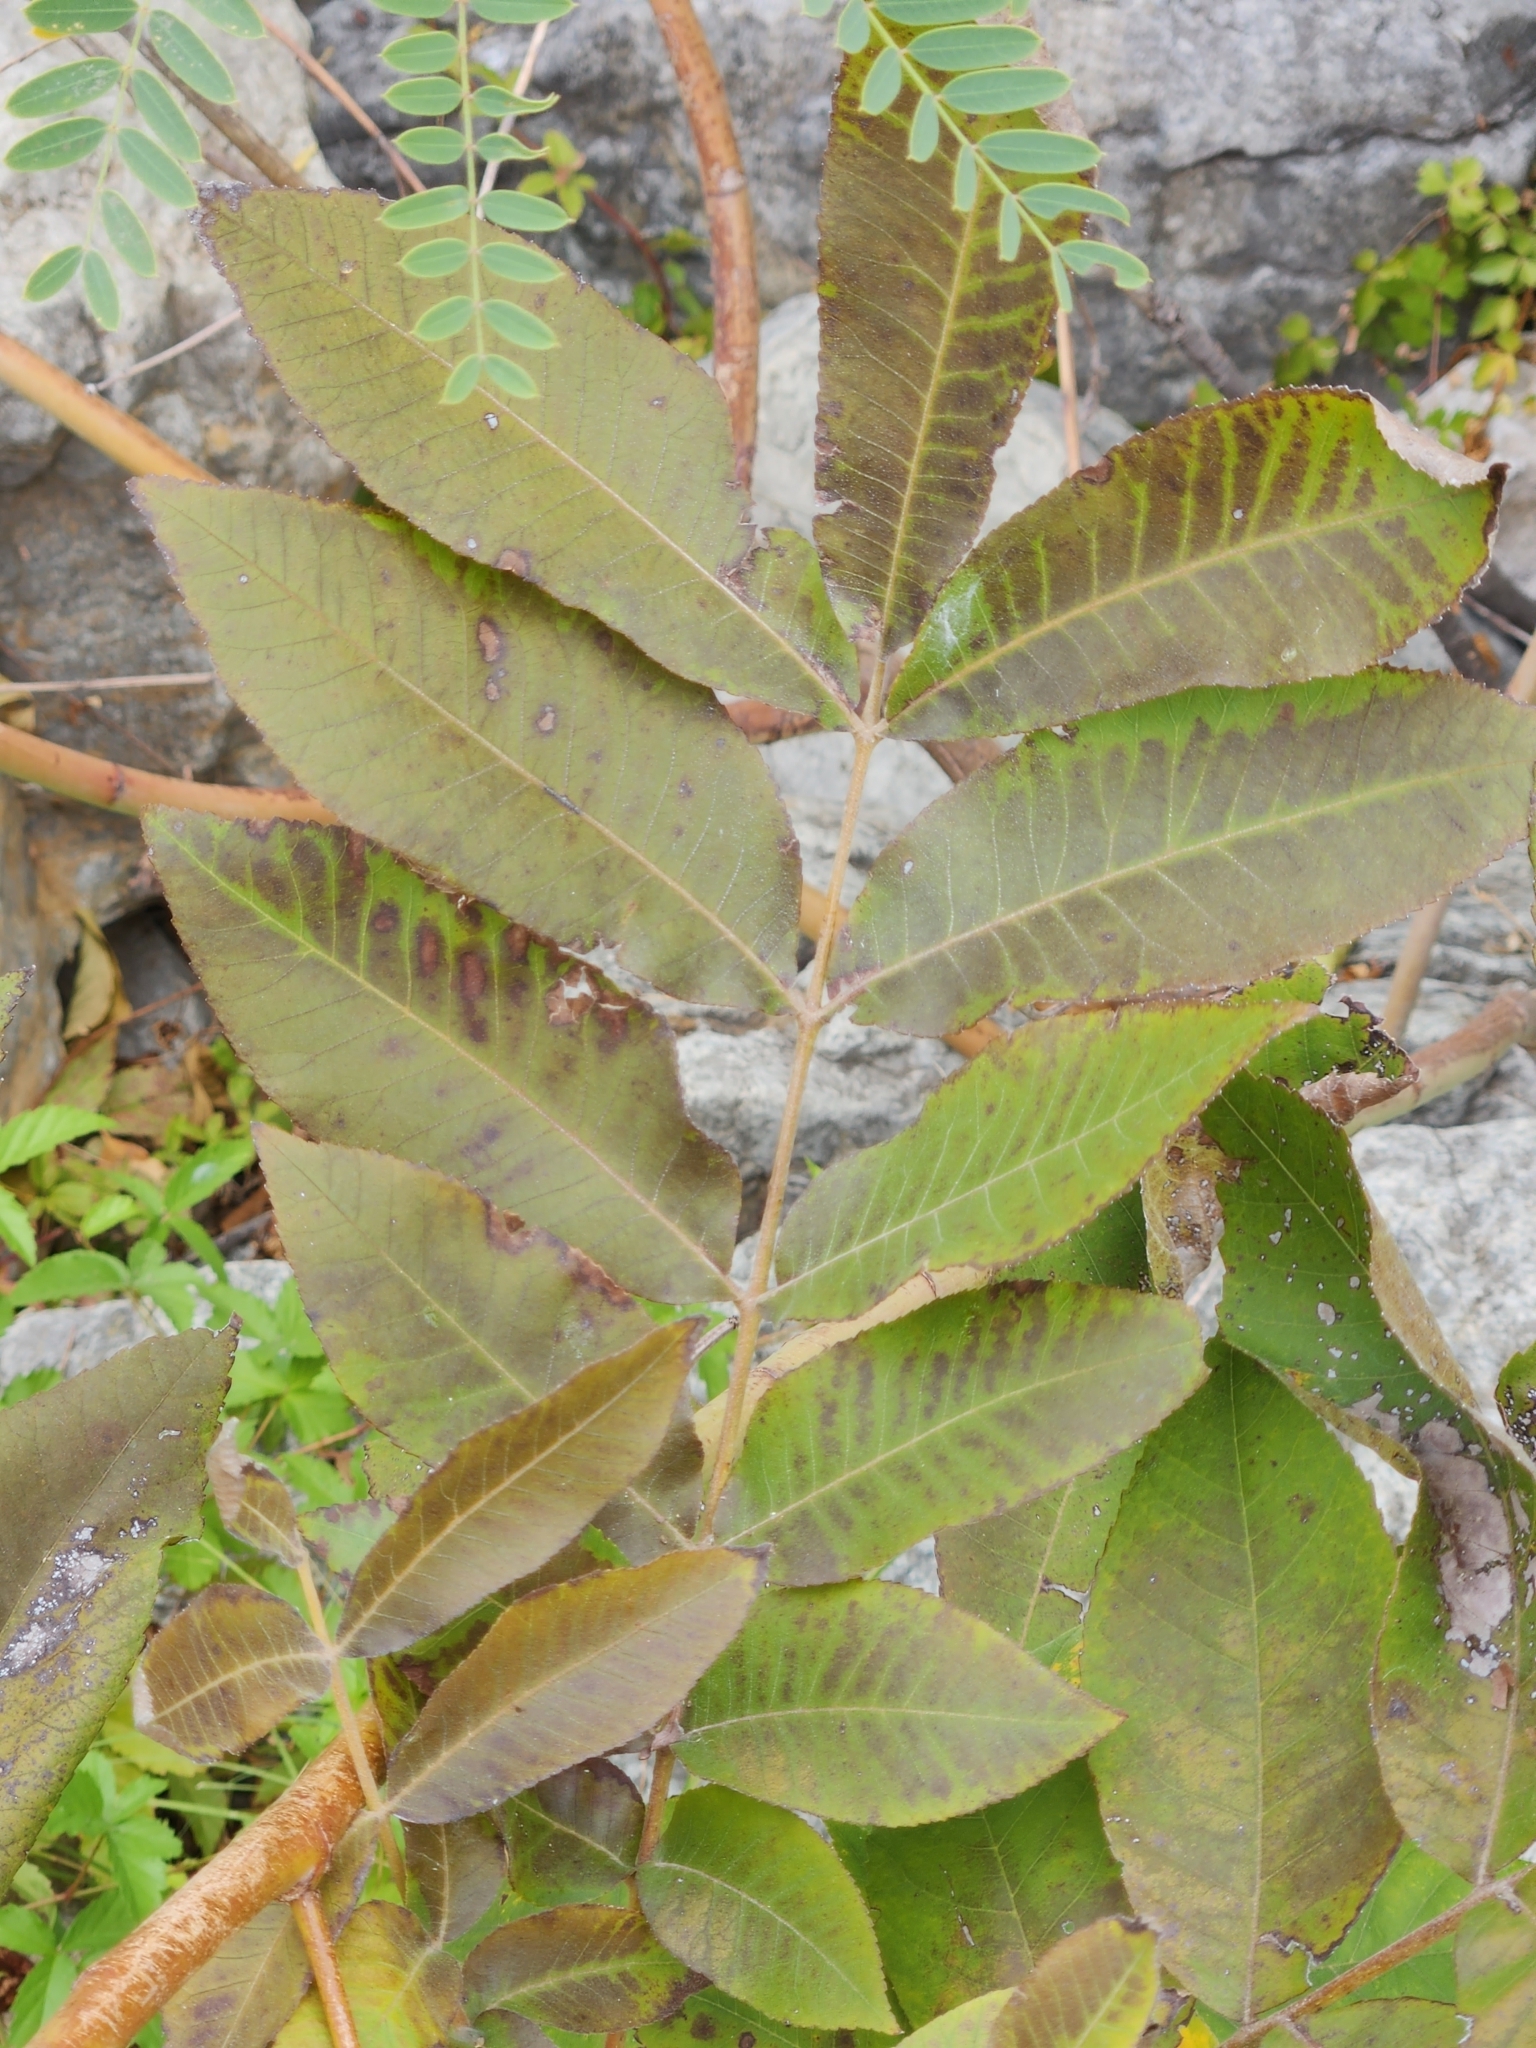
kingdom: Plantae
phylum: Tracheophyta
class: Magnoliopsida
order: Fagales
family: Juglandaceae
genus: Carya
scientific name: Carya illinoinensis
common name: Pecan
